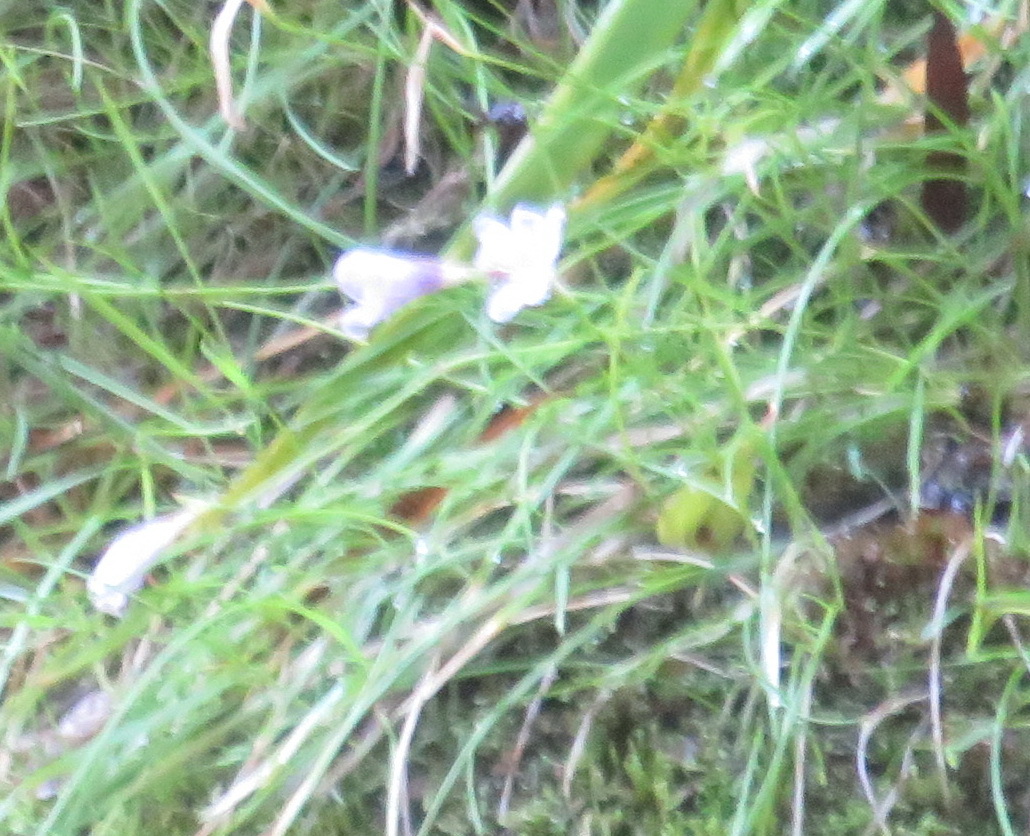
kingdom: Plantae
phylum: Tracheophyta
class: Liliopsida
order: Asparagales
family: Iridaceae
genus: Geissorhiza
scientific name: Geissorhiza uliginosa
